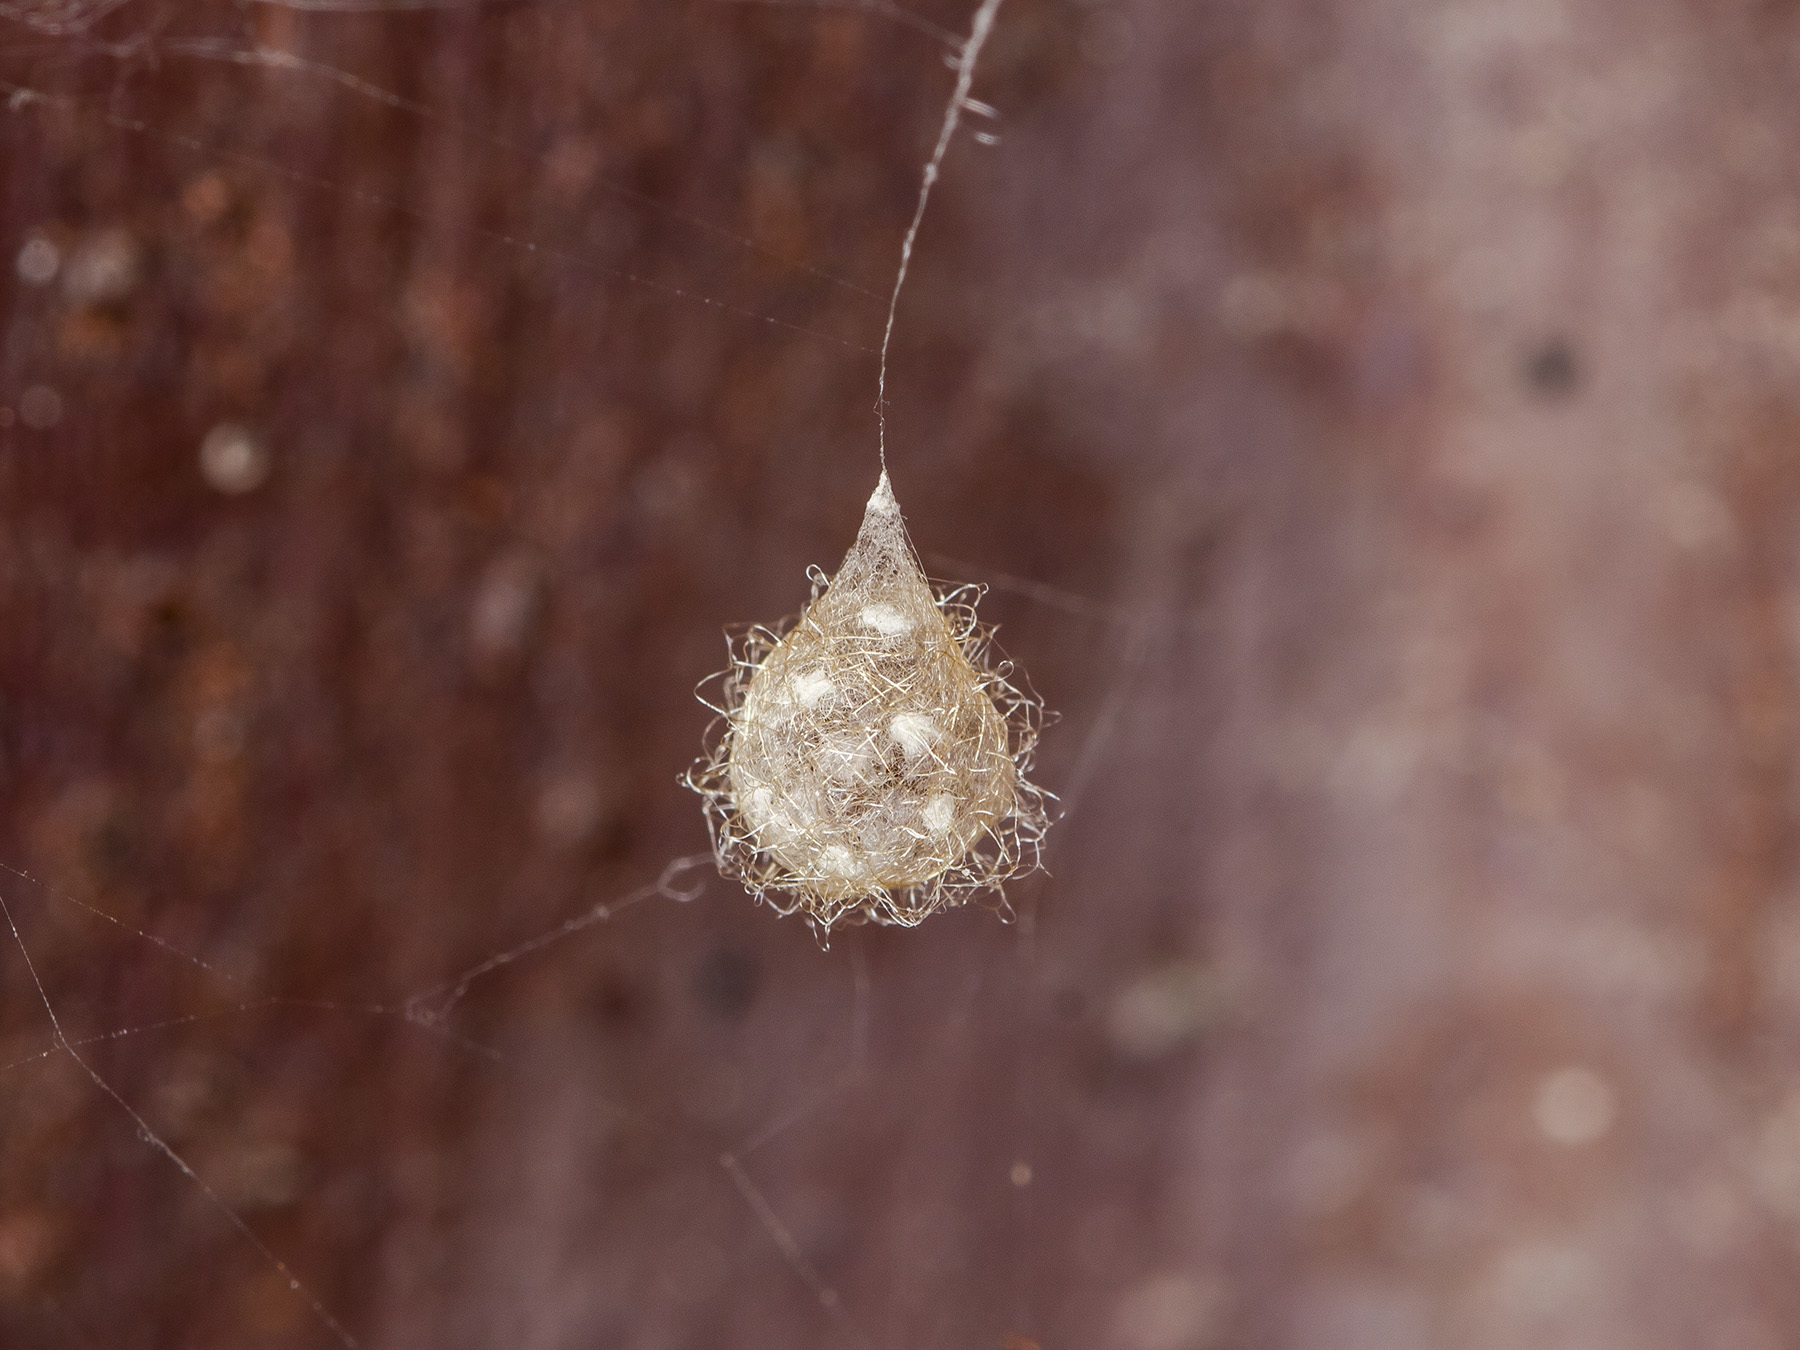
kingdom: Animalia
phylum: Arthropoda
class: Arachnida
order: Araneae
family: Mimetidae
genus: Ero
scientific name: Ero aphana
